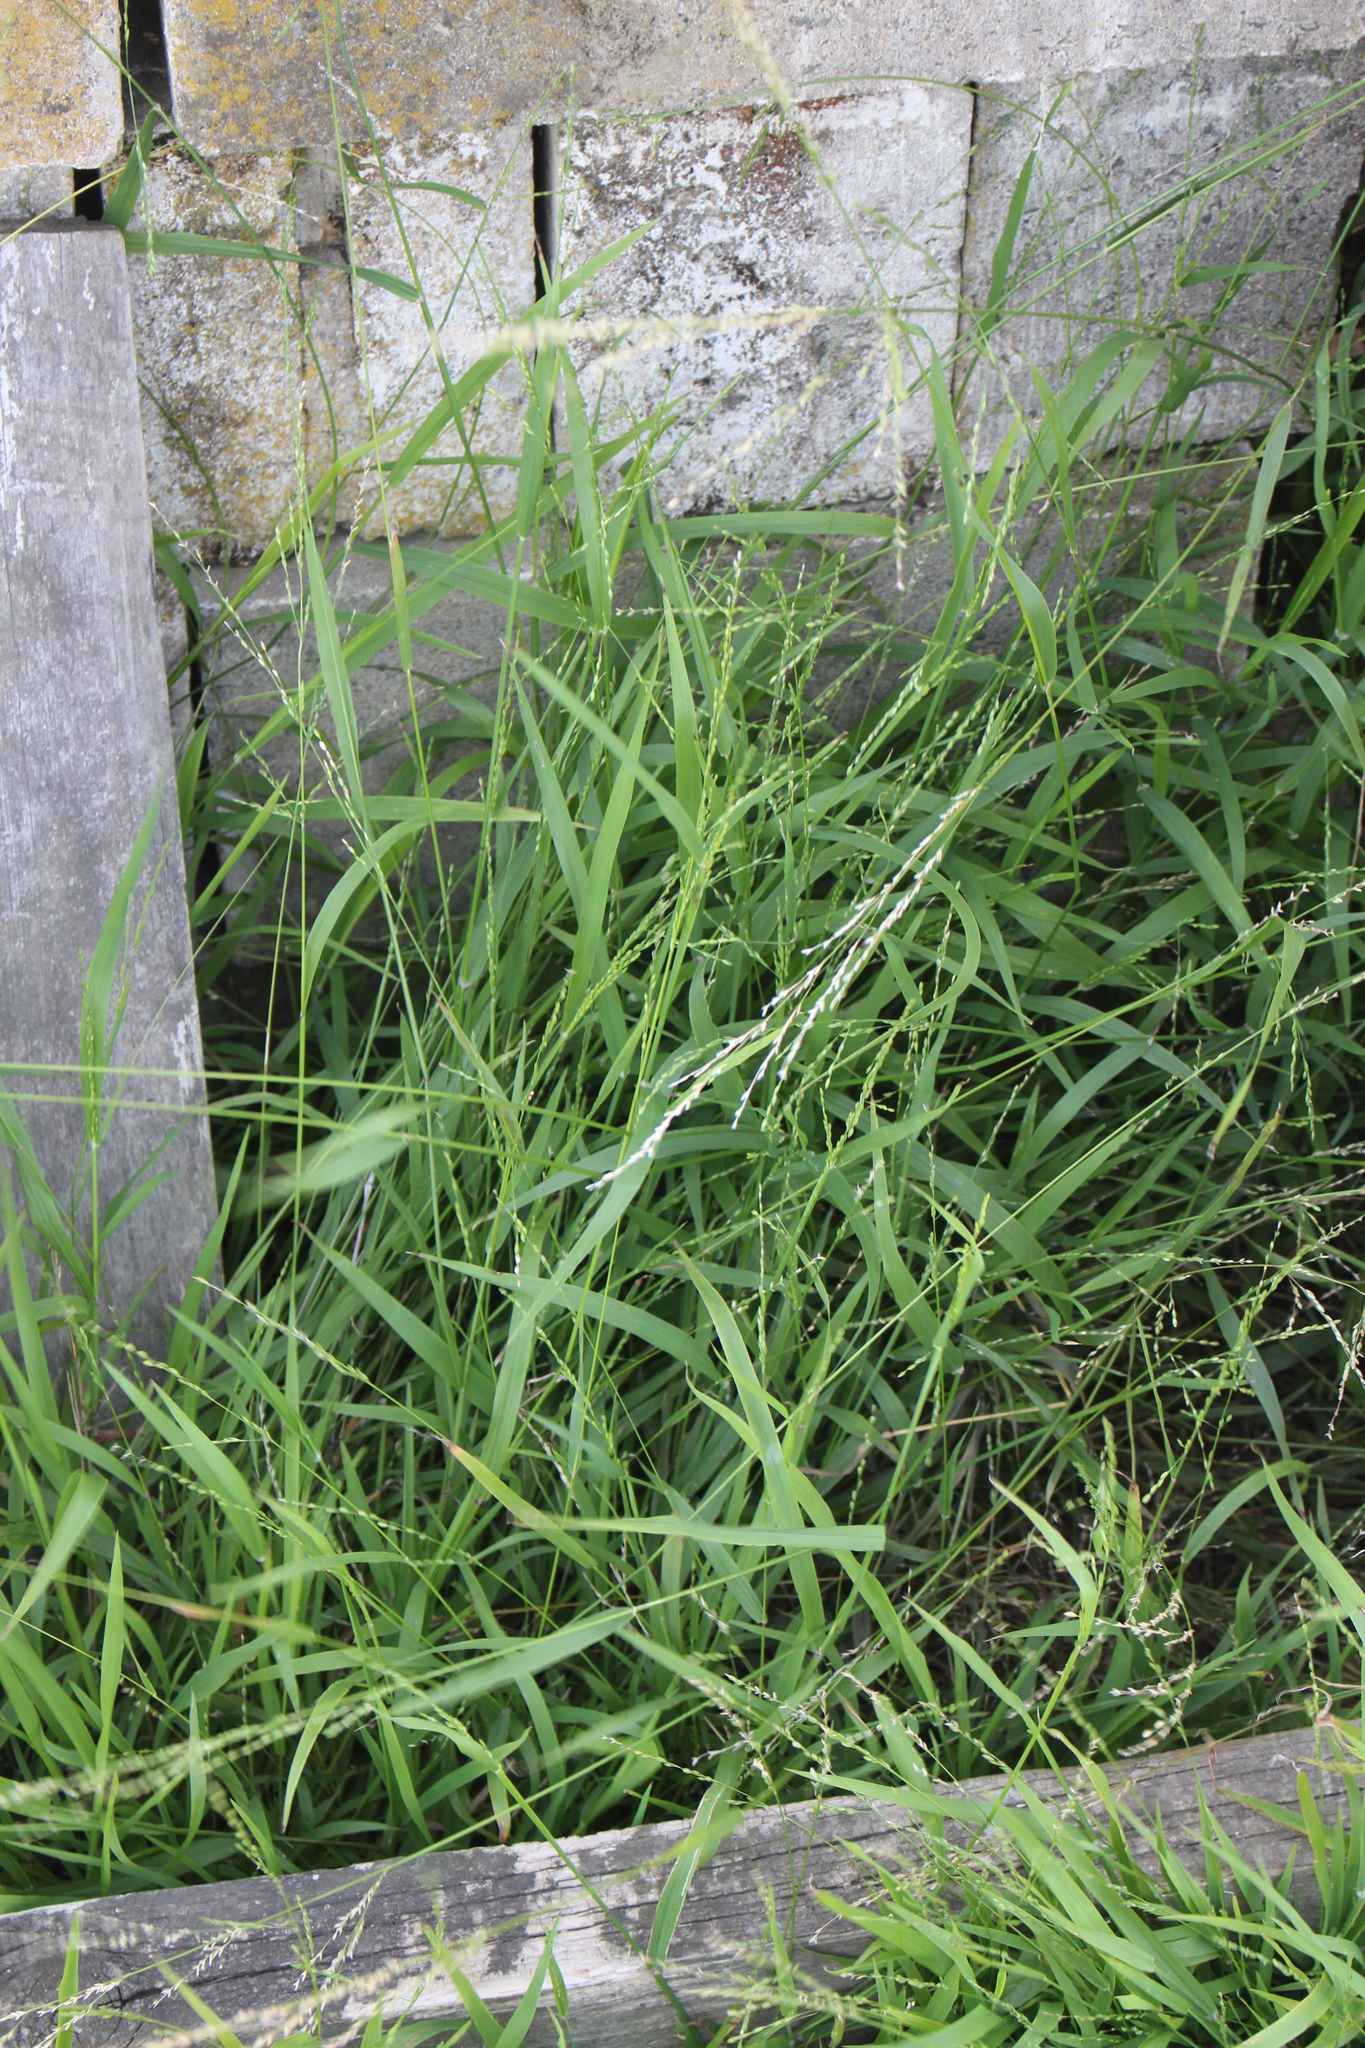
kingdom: Plantae
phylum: Tracheophyta
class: Liliopsida
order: Poales
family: Poaceae
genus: Ehrharta
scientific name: Ehrharta erecta
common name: Panic veldtgrass
